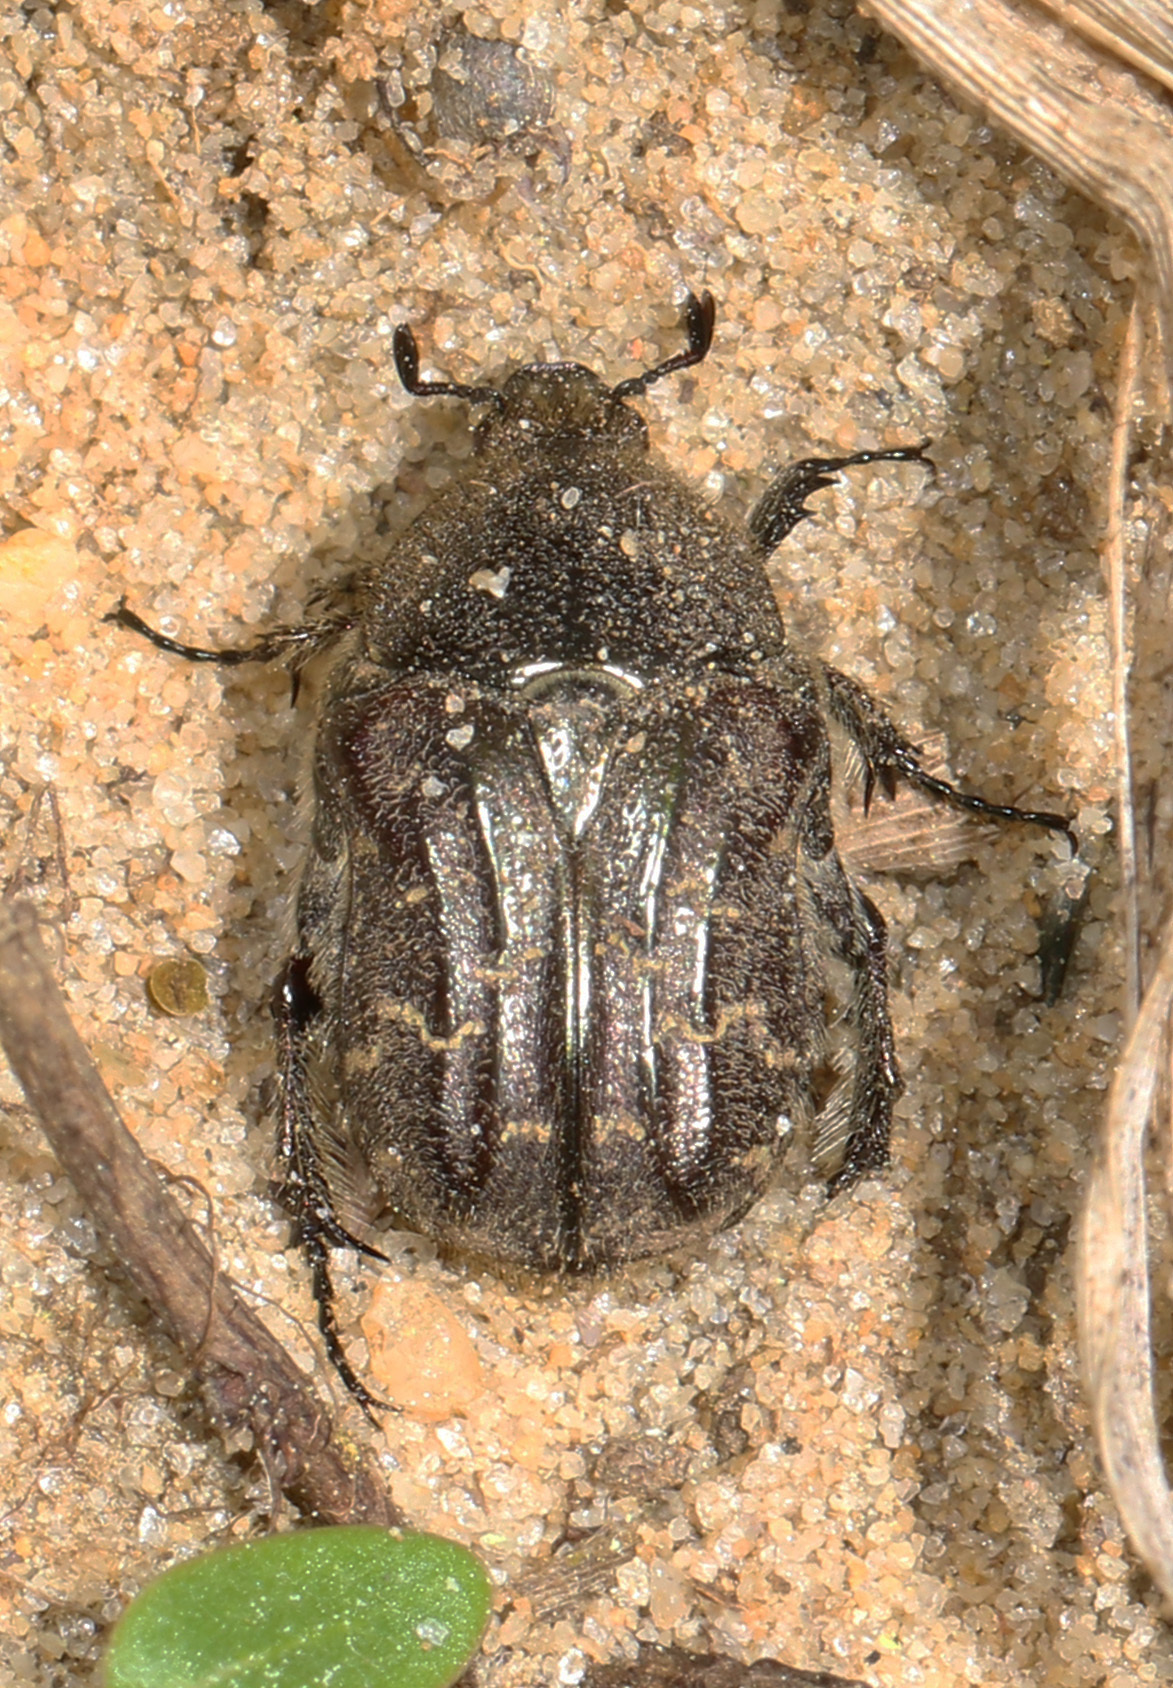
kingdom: Animalia
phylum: Arthropoda
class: Insecta
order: Coleoptera
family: Scarabaeidae
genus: Euphoria
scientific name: Euphoria sepulcralis
